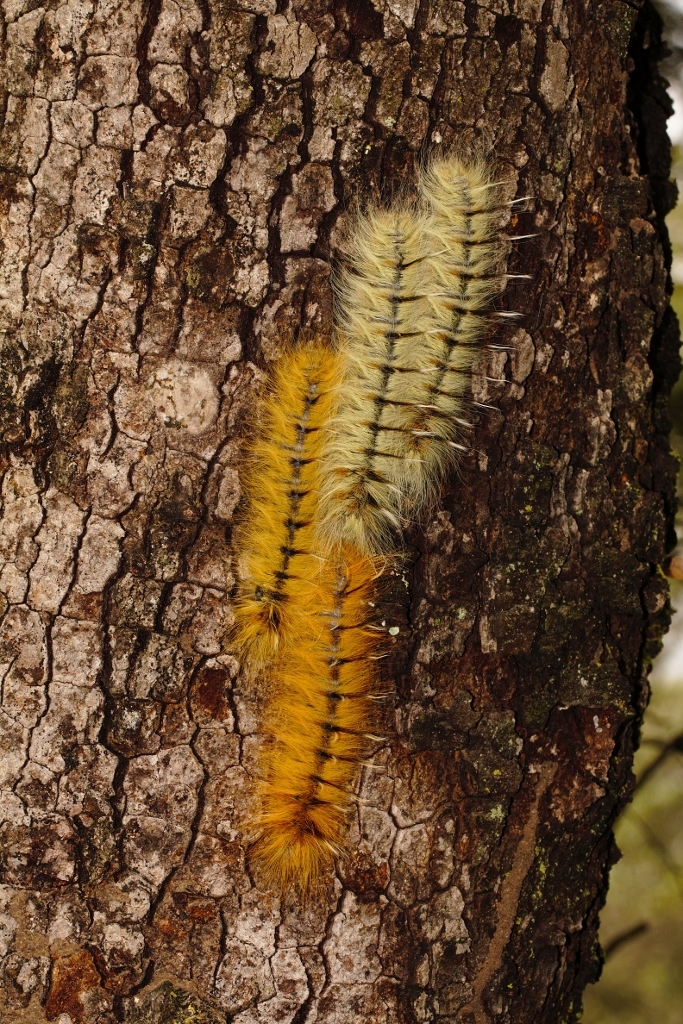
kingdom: Animalia
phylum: Arthropoda
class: Insecta
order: Lepidoptera
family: Lasiocampidae
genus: Gonometa
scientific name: Gonometa robusta
